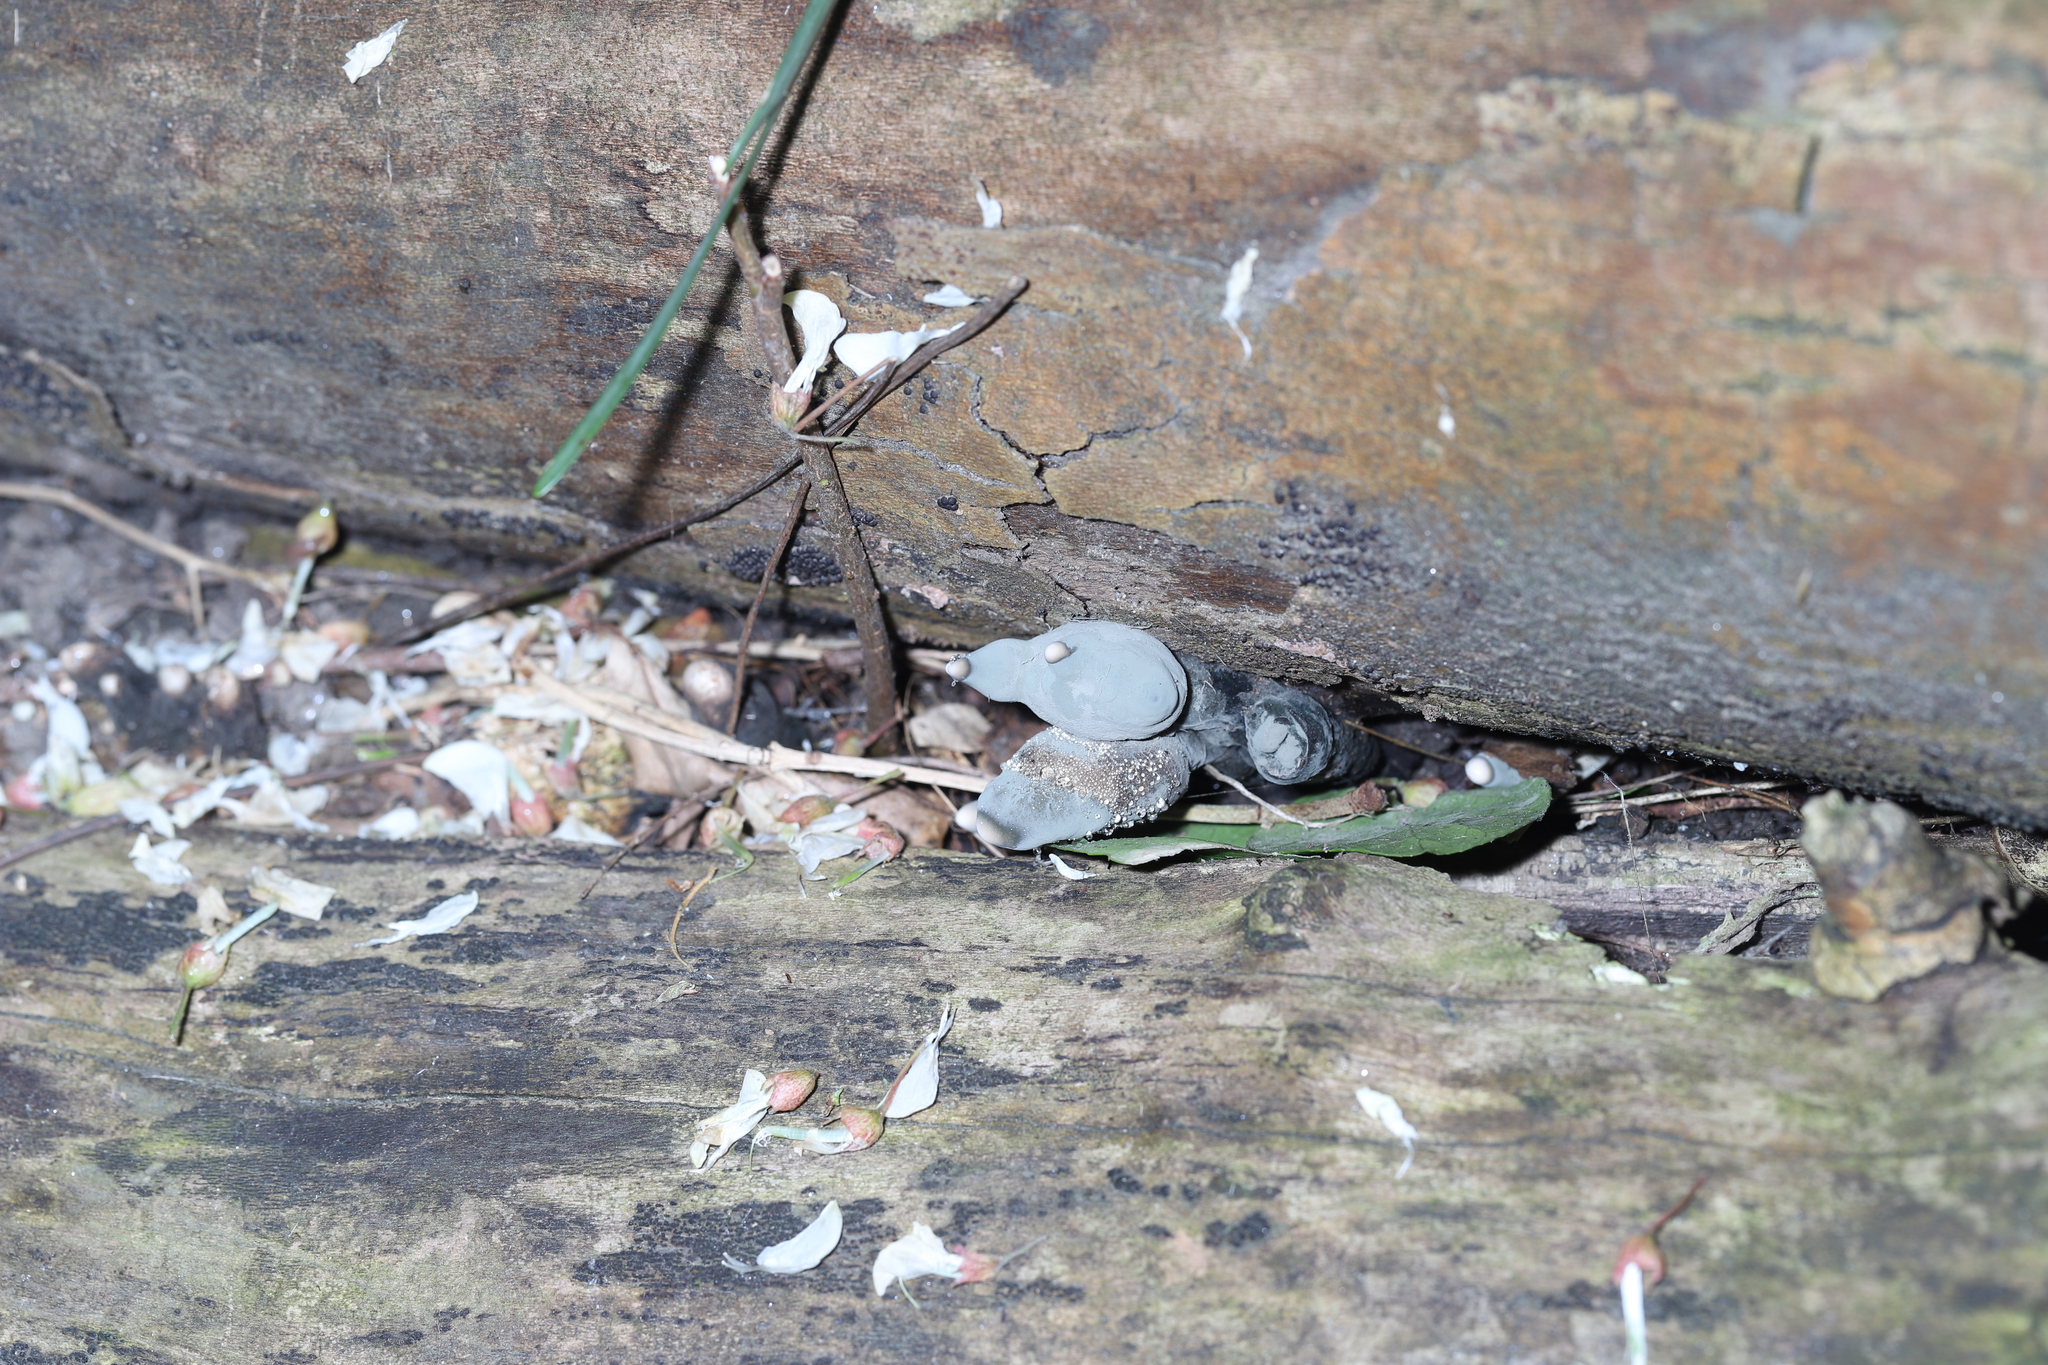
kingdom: Fungi
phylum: Ascomycota
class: Sordariomycetes
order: Xylariales
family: Xylariaceae
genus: Xylaria
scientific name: Xylaria polymorpha
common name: Dead man's fingers
